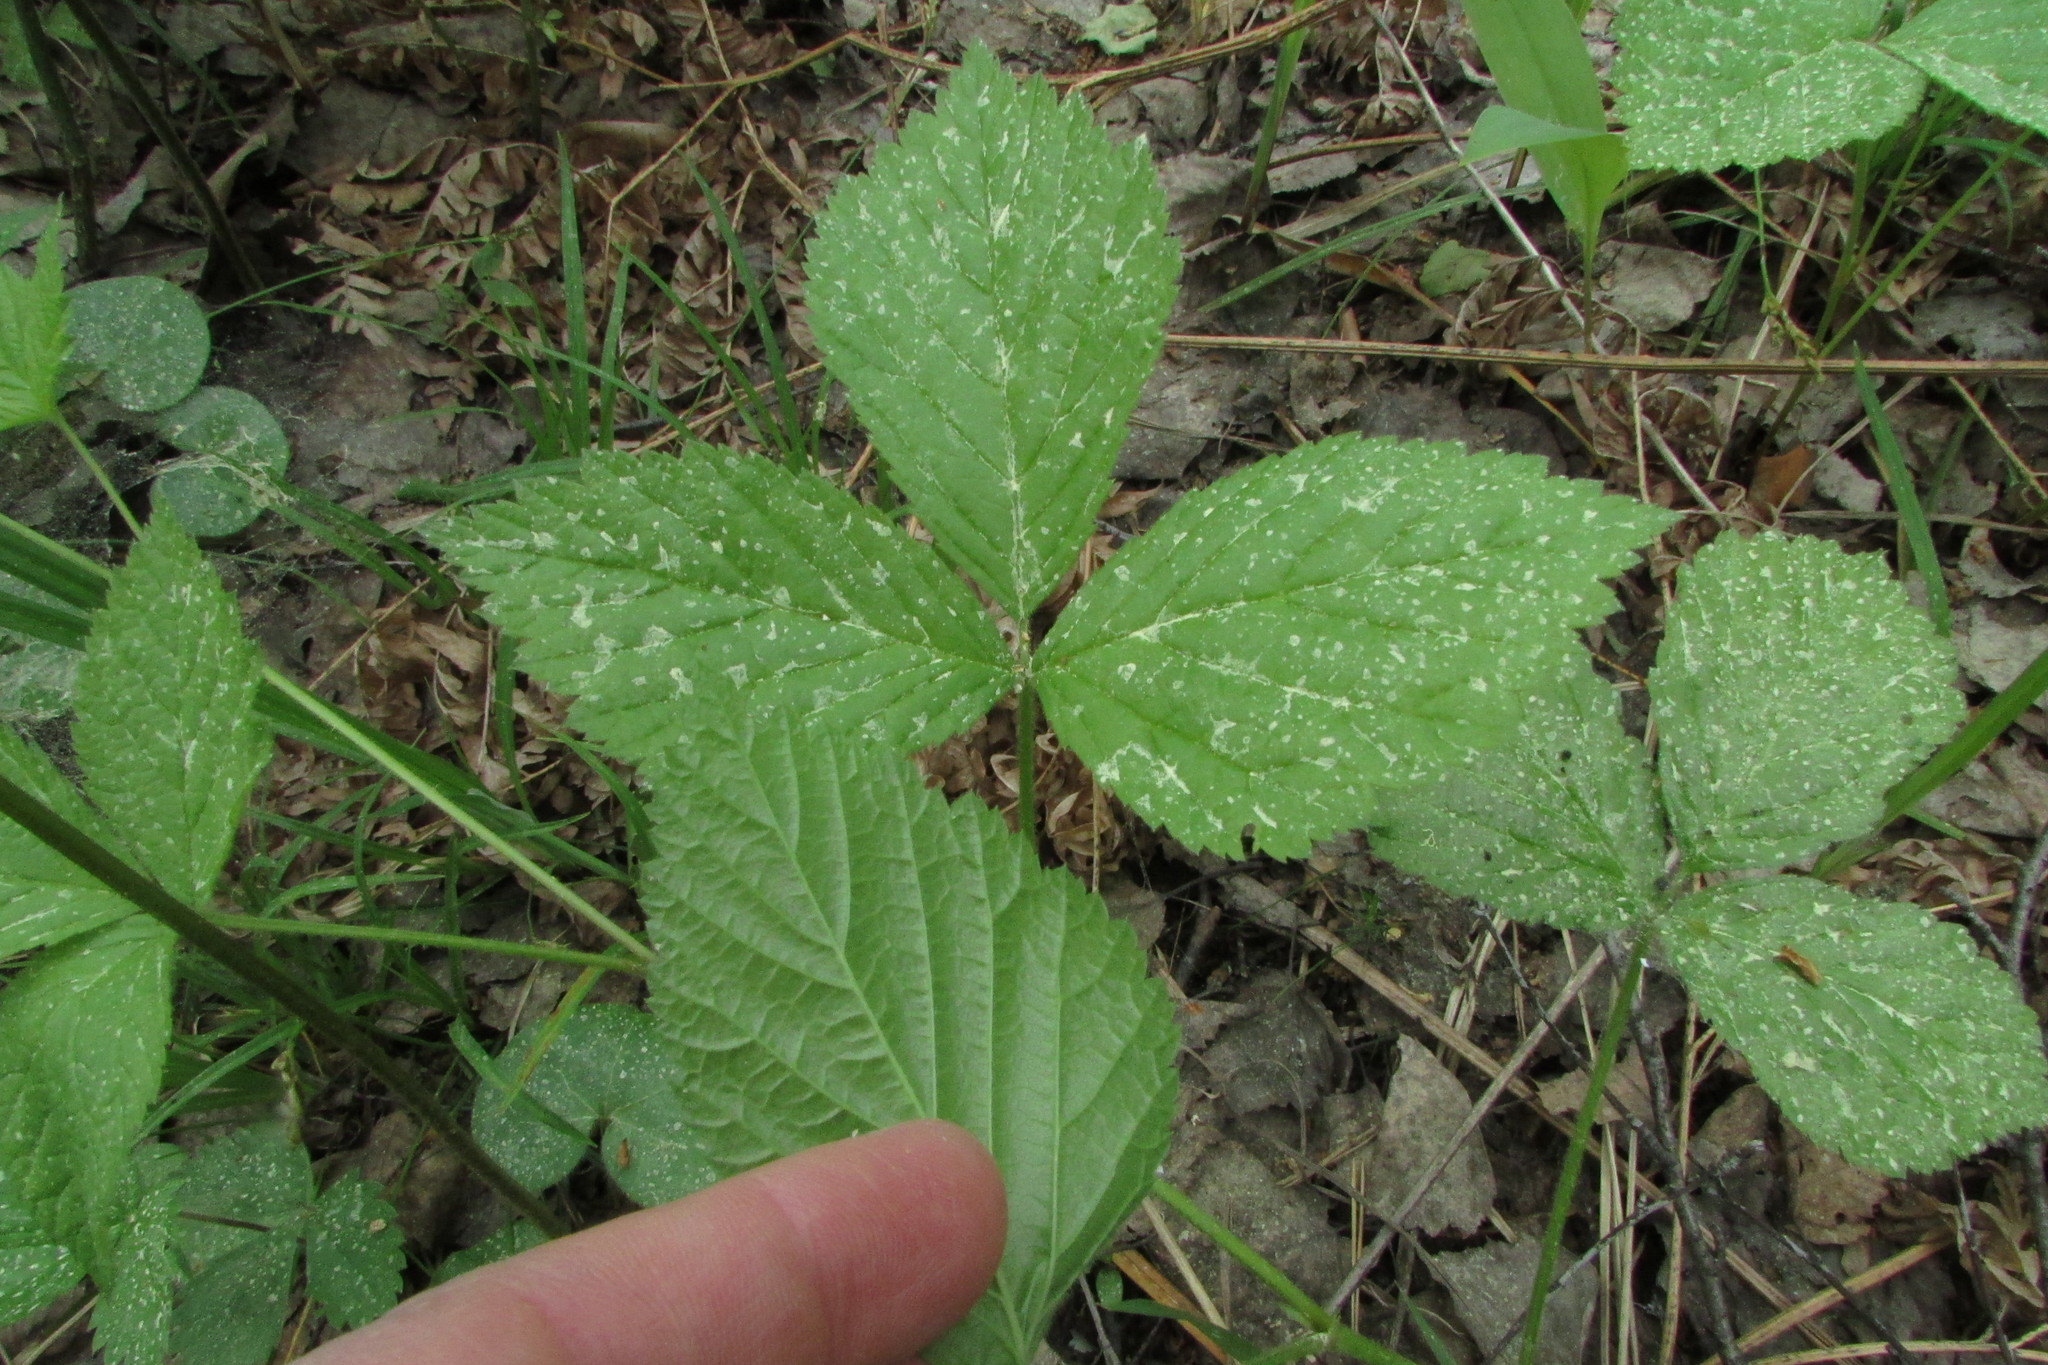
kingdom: Plantae
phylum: Tracheophyta
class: Magnoliopsida
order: Rosales
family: Rosaceae
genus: Rubus
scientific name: Rubus saxatilis
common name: Stone bramble
